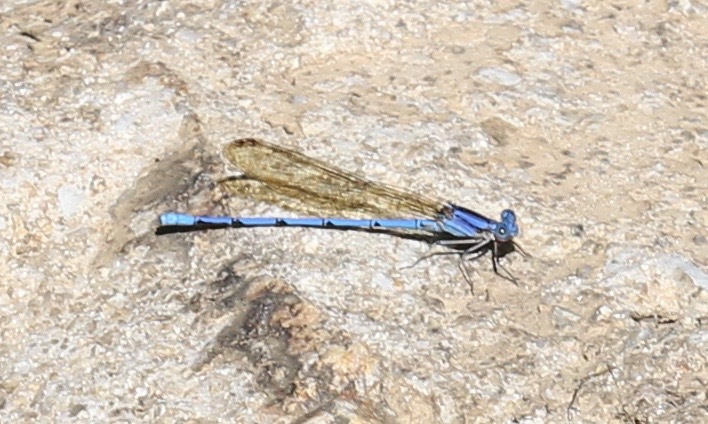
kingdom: Animalia
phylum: Arthropoda
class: Insecta
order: Odonata
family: Coenagrionidae
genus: Argia
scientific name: Argia anceps
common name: Cerulean dancer
